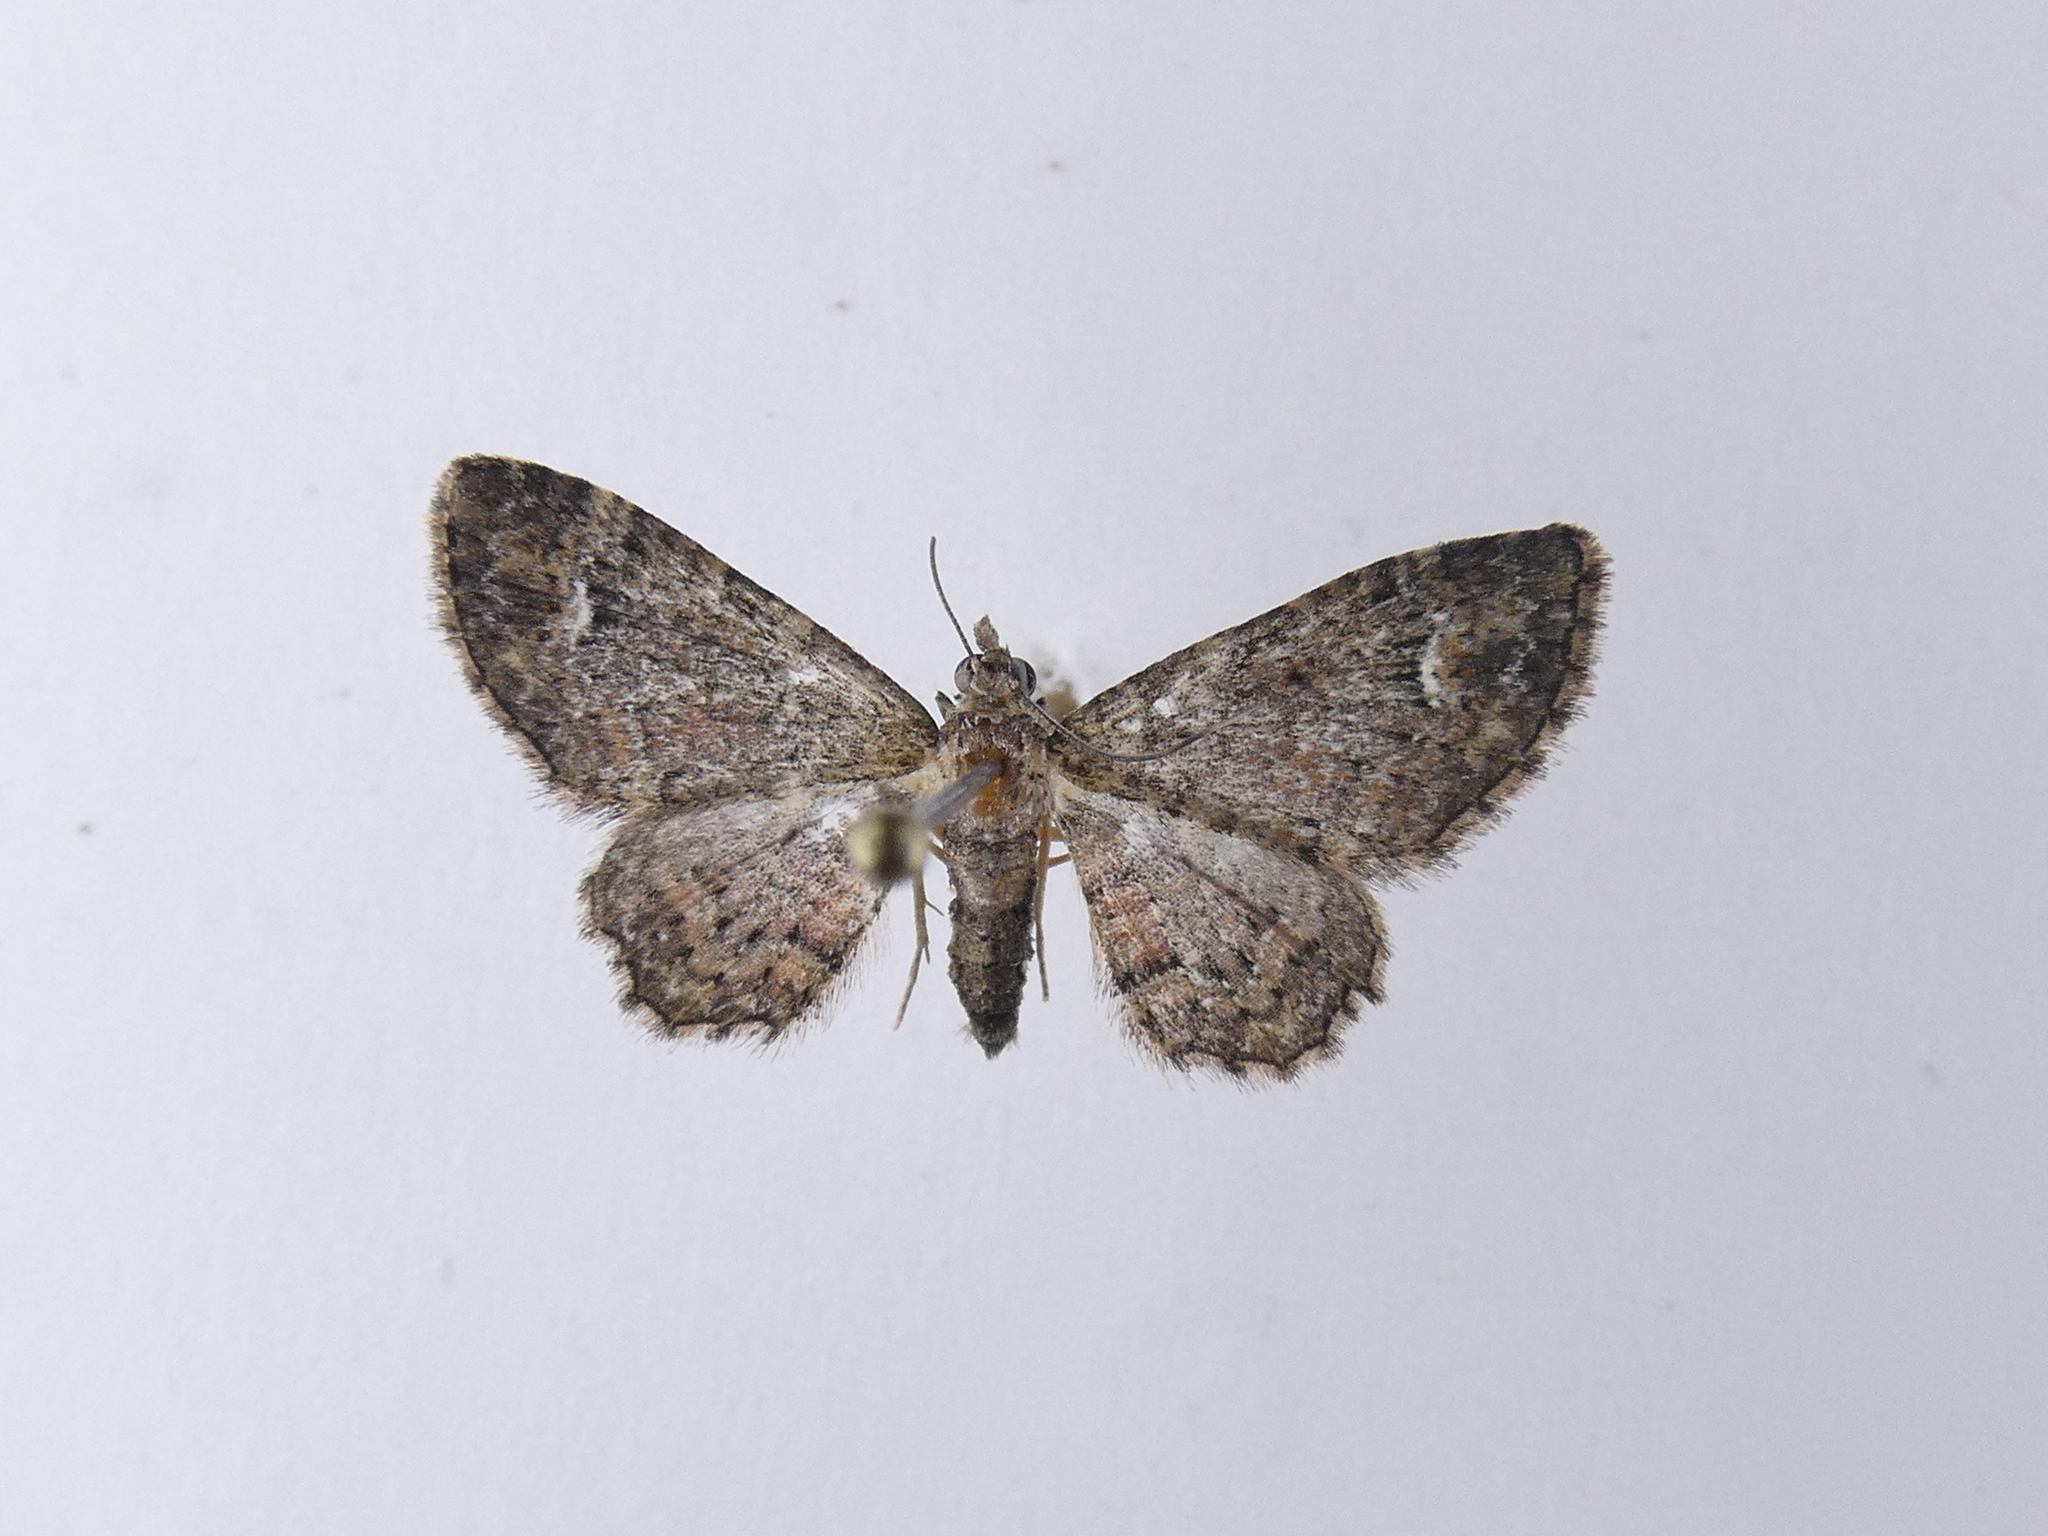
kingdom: Animalia
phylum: Arthropoda
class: Insecta
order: Lepidoptera
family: Geometridae
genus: Pasiphilodes
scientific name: Pasiphilodes testulata
